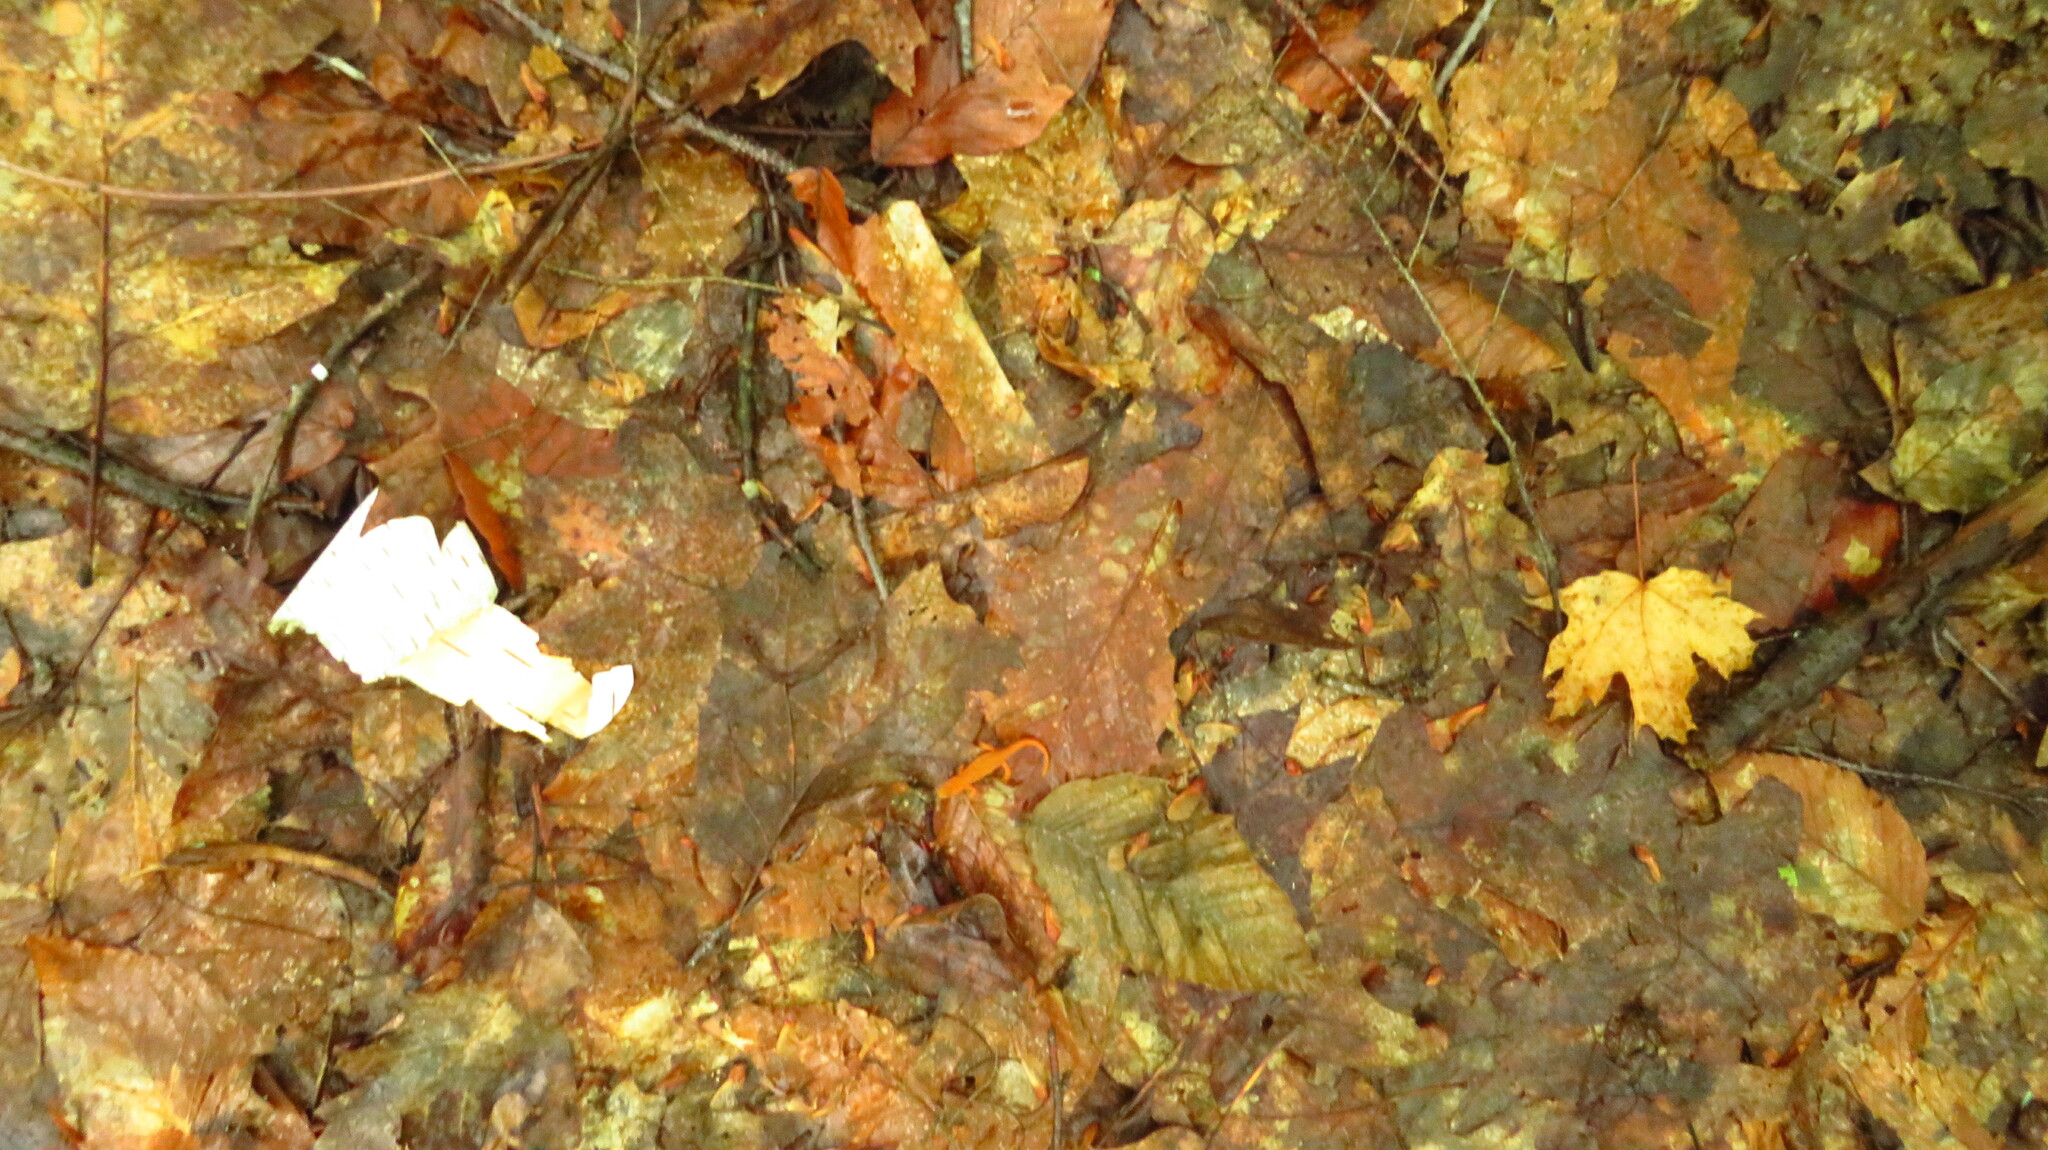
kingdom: Animalia
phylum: Chordata
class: Amphibia
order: Caudata
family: Salamandridae
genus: Notophthalmus
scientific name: Notophthalmus viridescens
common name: Eastern newt
